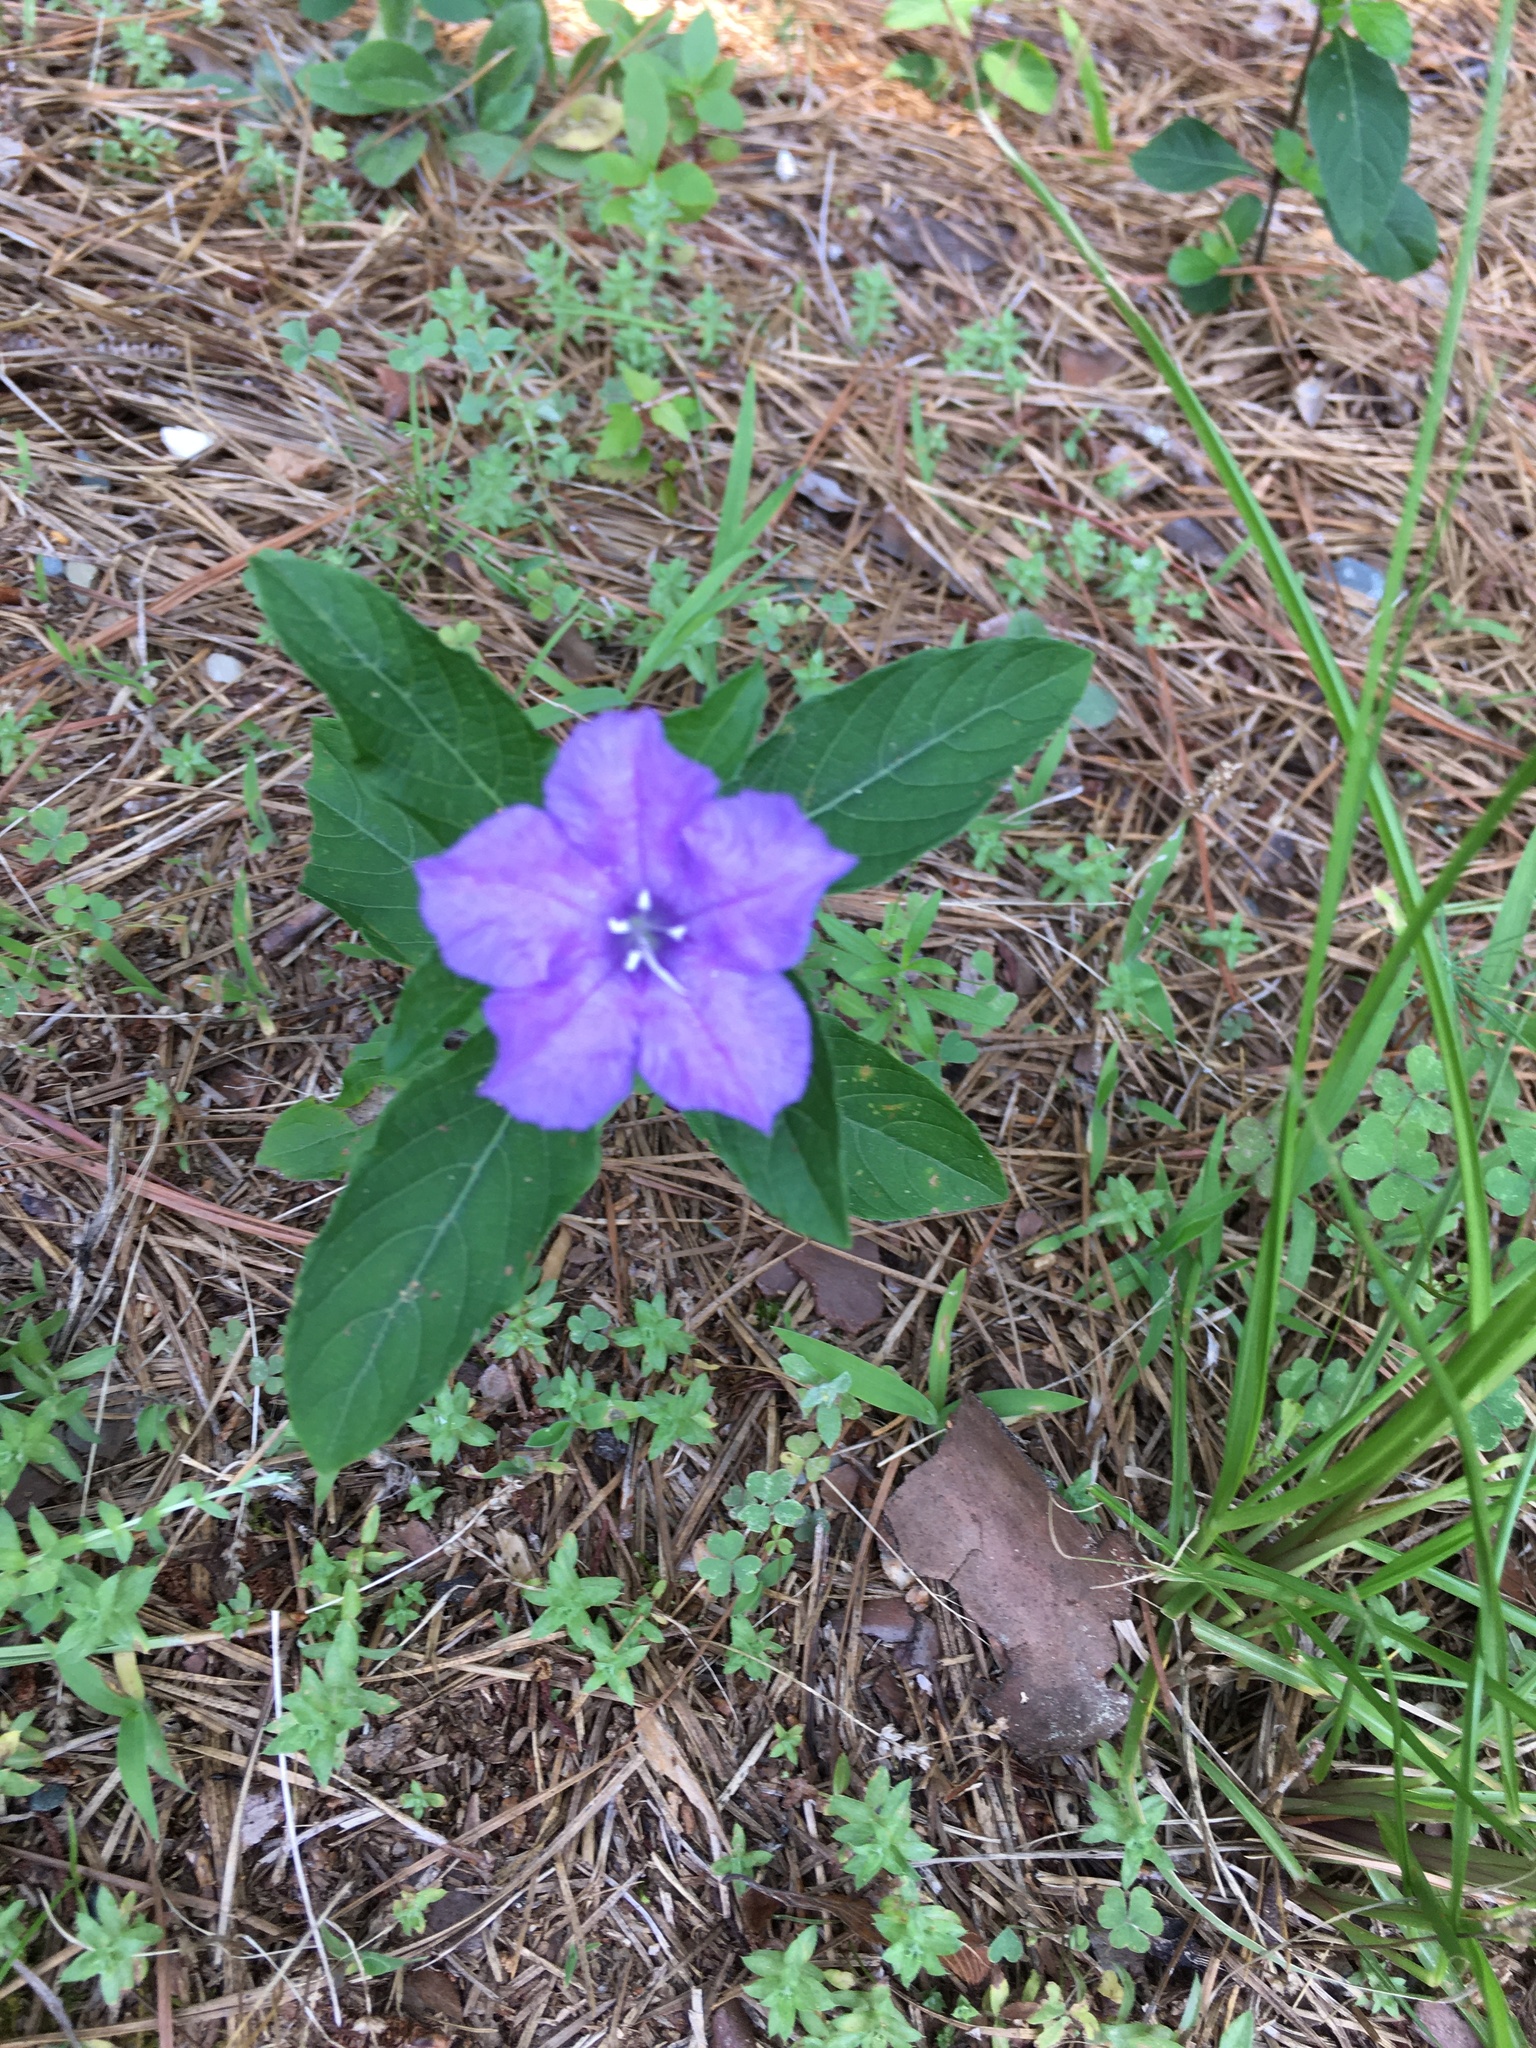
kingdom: Plantae
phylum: Tracheophyta
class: Magnoliopsida
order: Lamiales
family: Acanthaceae
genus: Ruellia
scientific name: Ruellia caroliniensis
